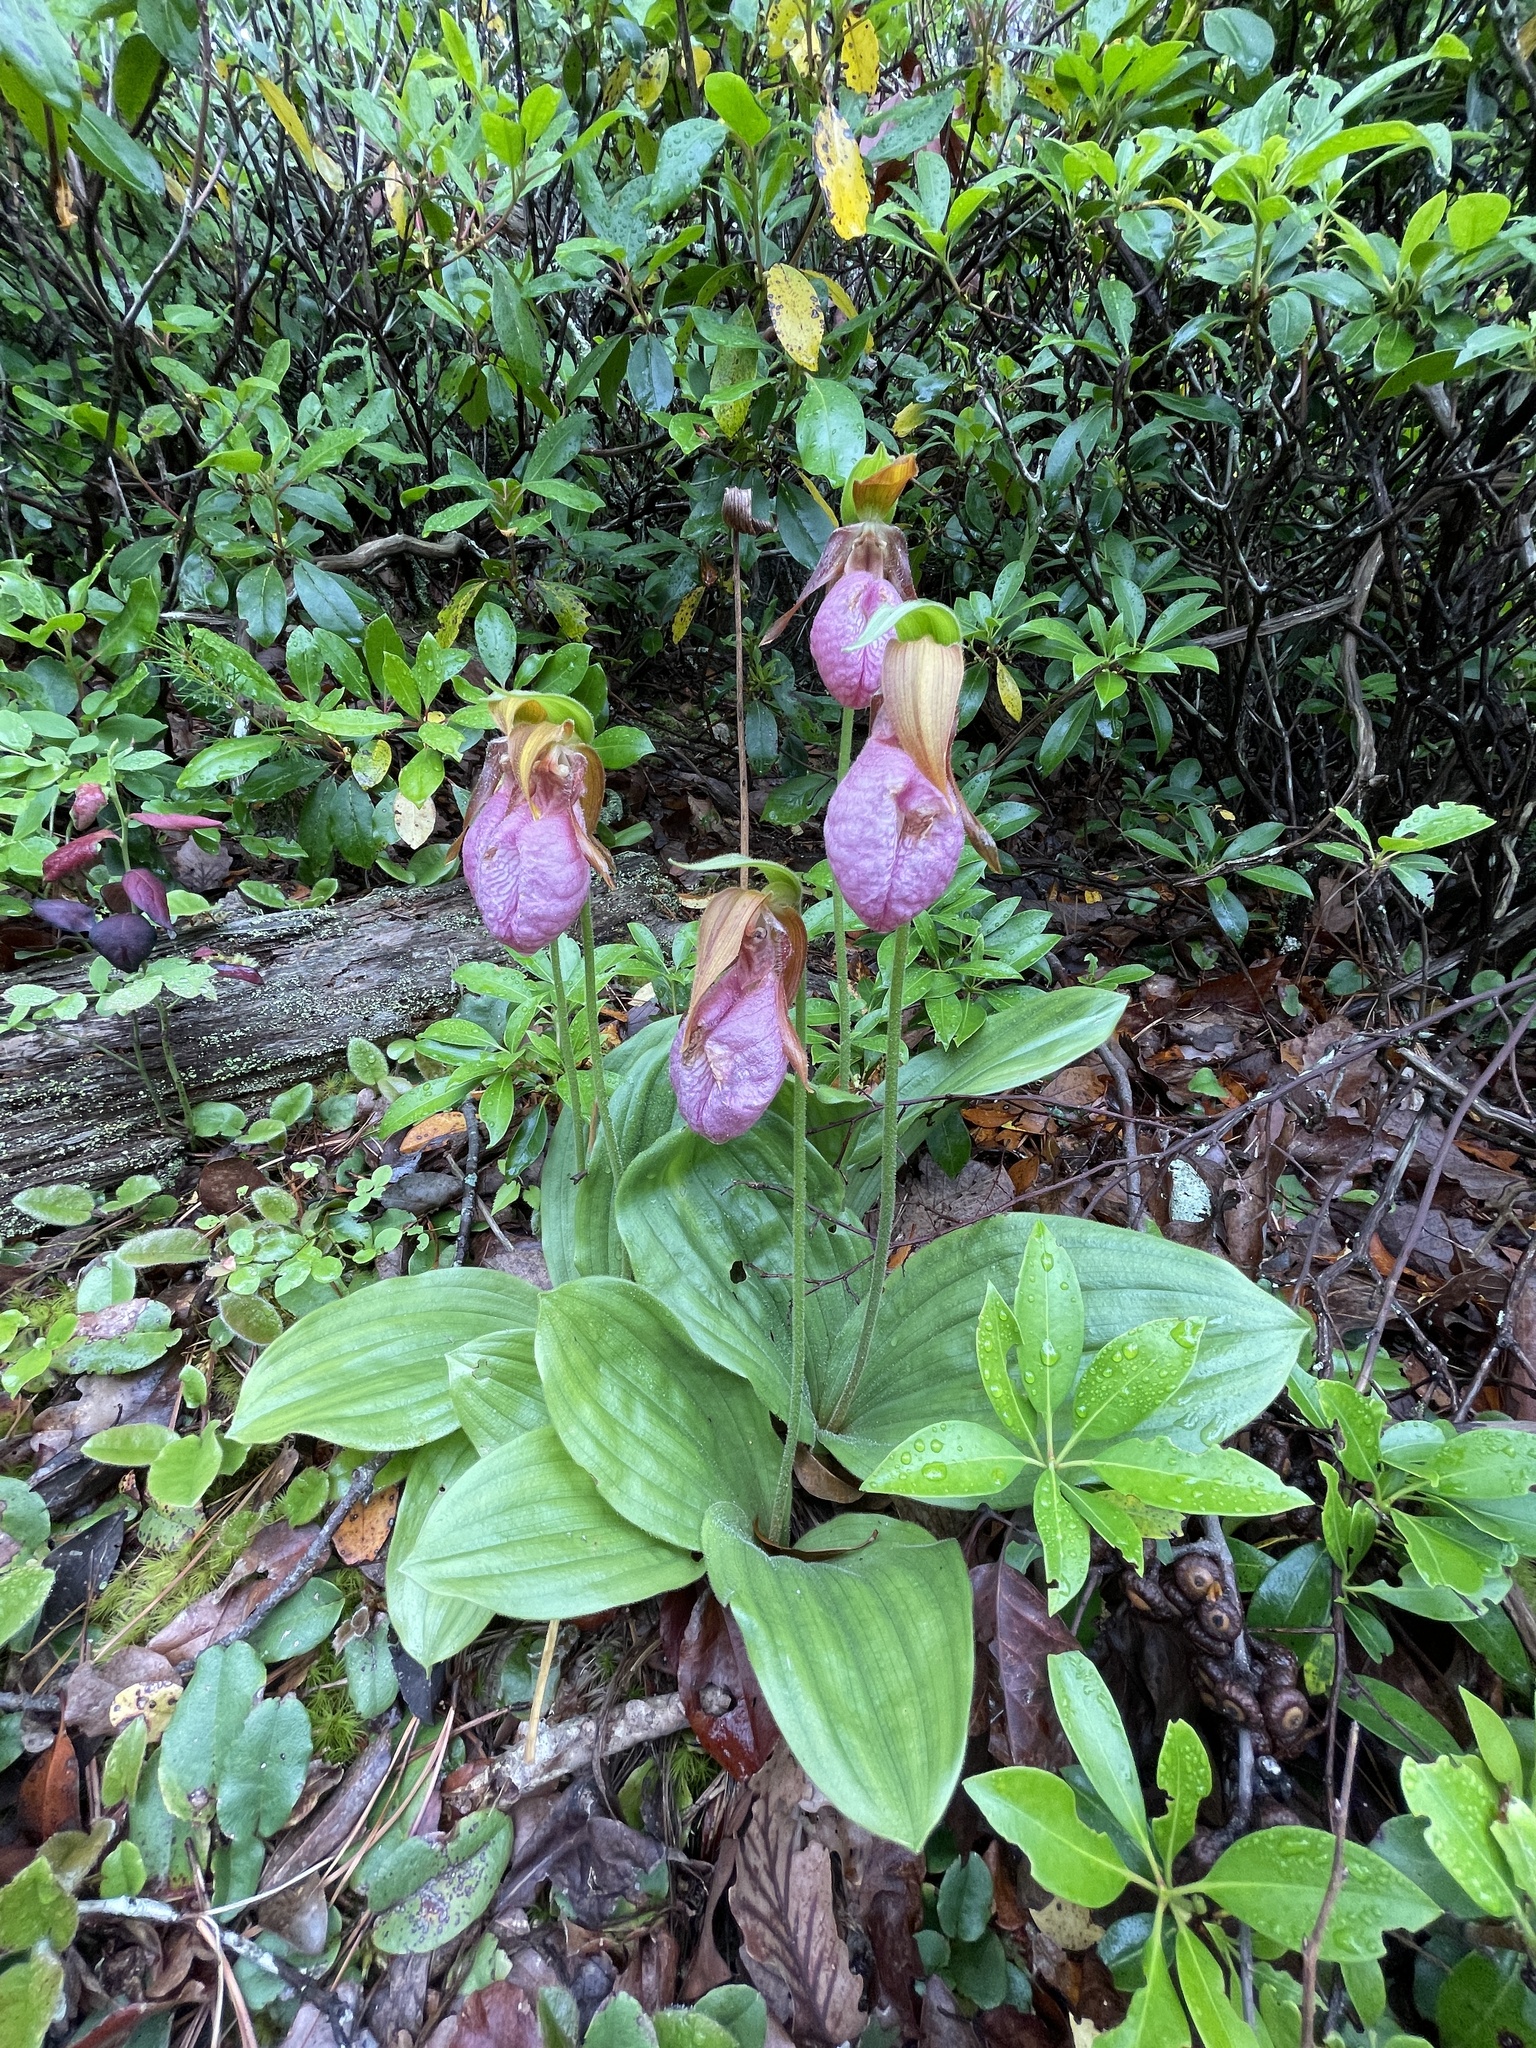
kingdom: Plantae
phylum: Tracheophyta
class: Liliopsida
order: Asparagales
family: Orchidaceae
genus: Cypripedium
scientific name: Cypripedium acaule
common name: Pink lady's-slipper
